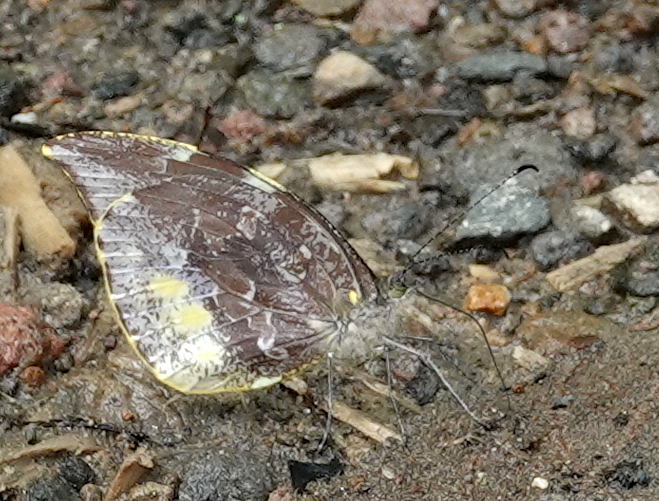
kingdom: Animalia
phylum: Arthropoda
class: Insecta
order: Lepidoptera
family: Pieridae
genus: Lieinix
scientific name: Lieinix nemesis
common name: Frosted mimic-white
